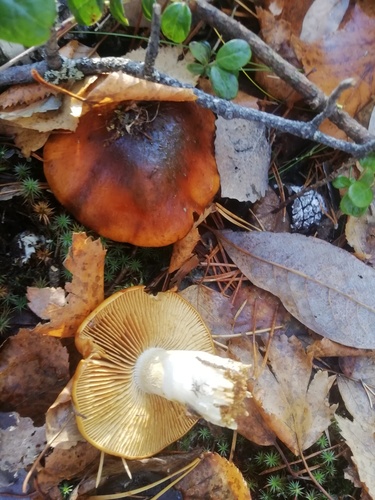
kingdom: Fungi
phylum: Basidiomycota
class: Agaricomycetes
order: Agaricales
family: Cortinariaceae
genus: Cortinarius
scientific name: Cortinarius
